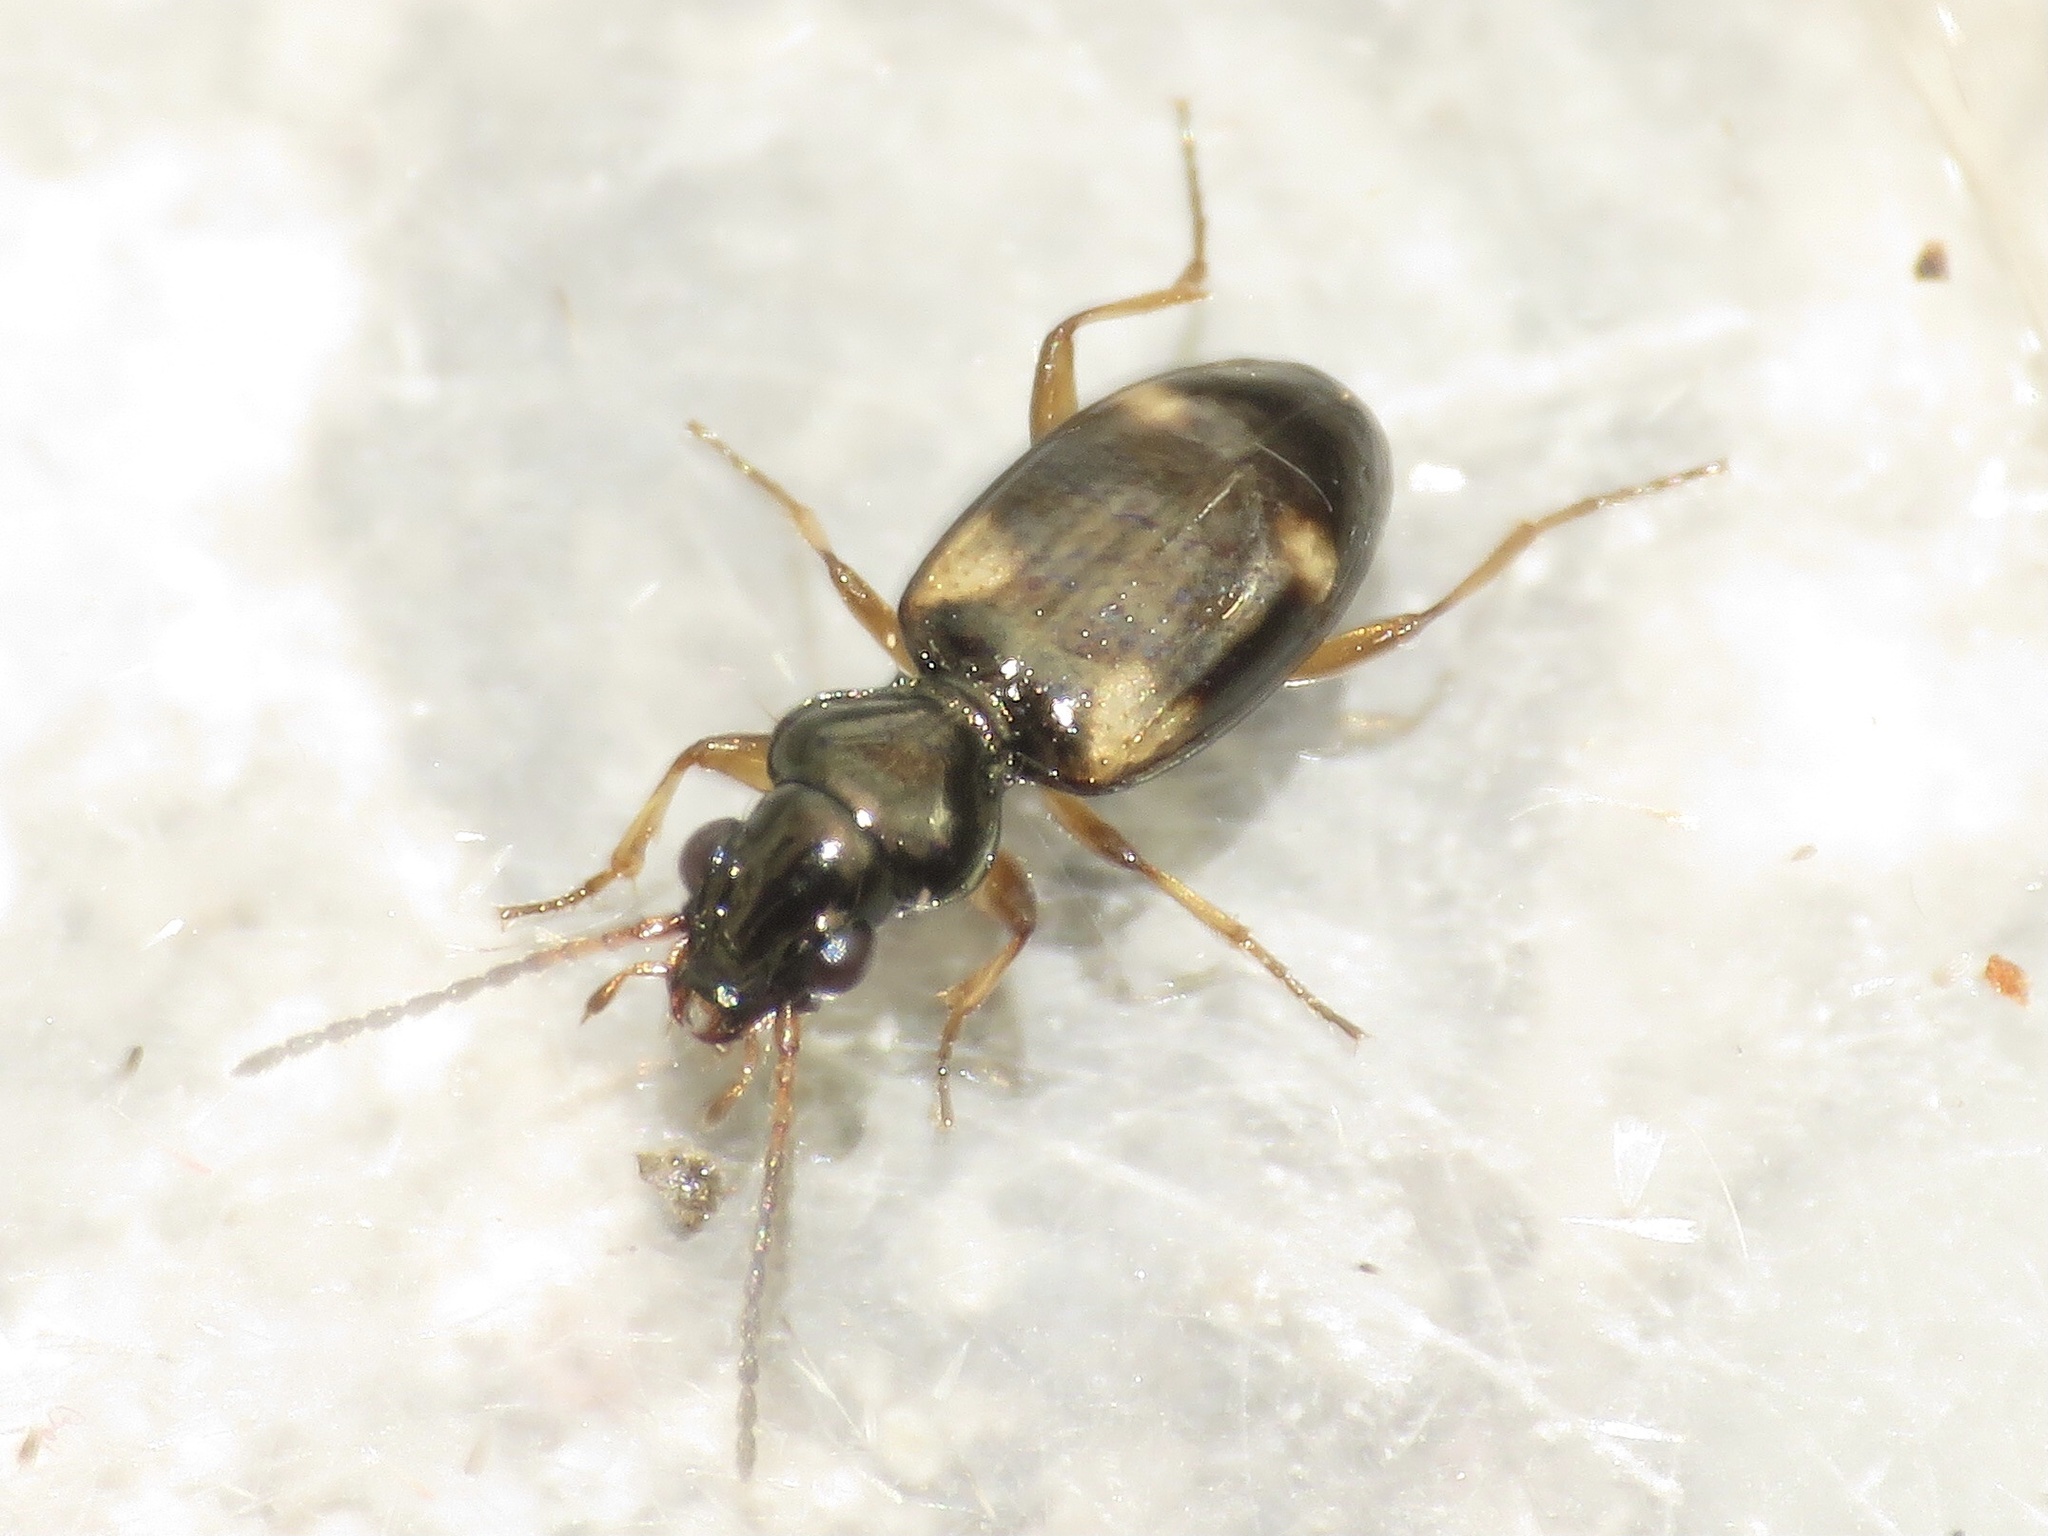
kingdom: Animalia
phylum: Arthropoda
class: Insecta
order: Coleoptera
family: Carabidae
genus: Bembidion
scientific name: Bembidion quadrimaculatum
